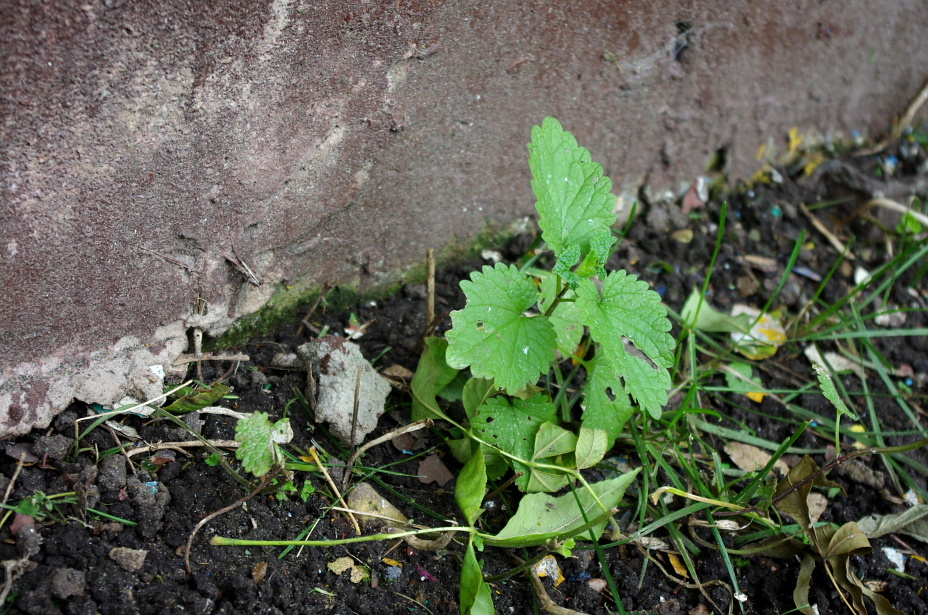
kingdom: Plantae
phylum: Tracheophyta
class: Magnoliopsida
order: Lamiales
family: Lamiaceae
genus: Lamium
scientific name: Lamium album
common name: White dead-nettle
